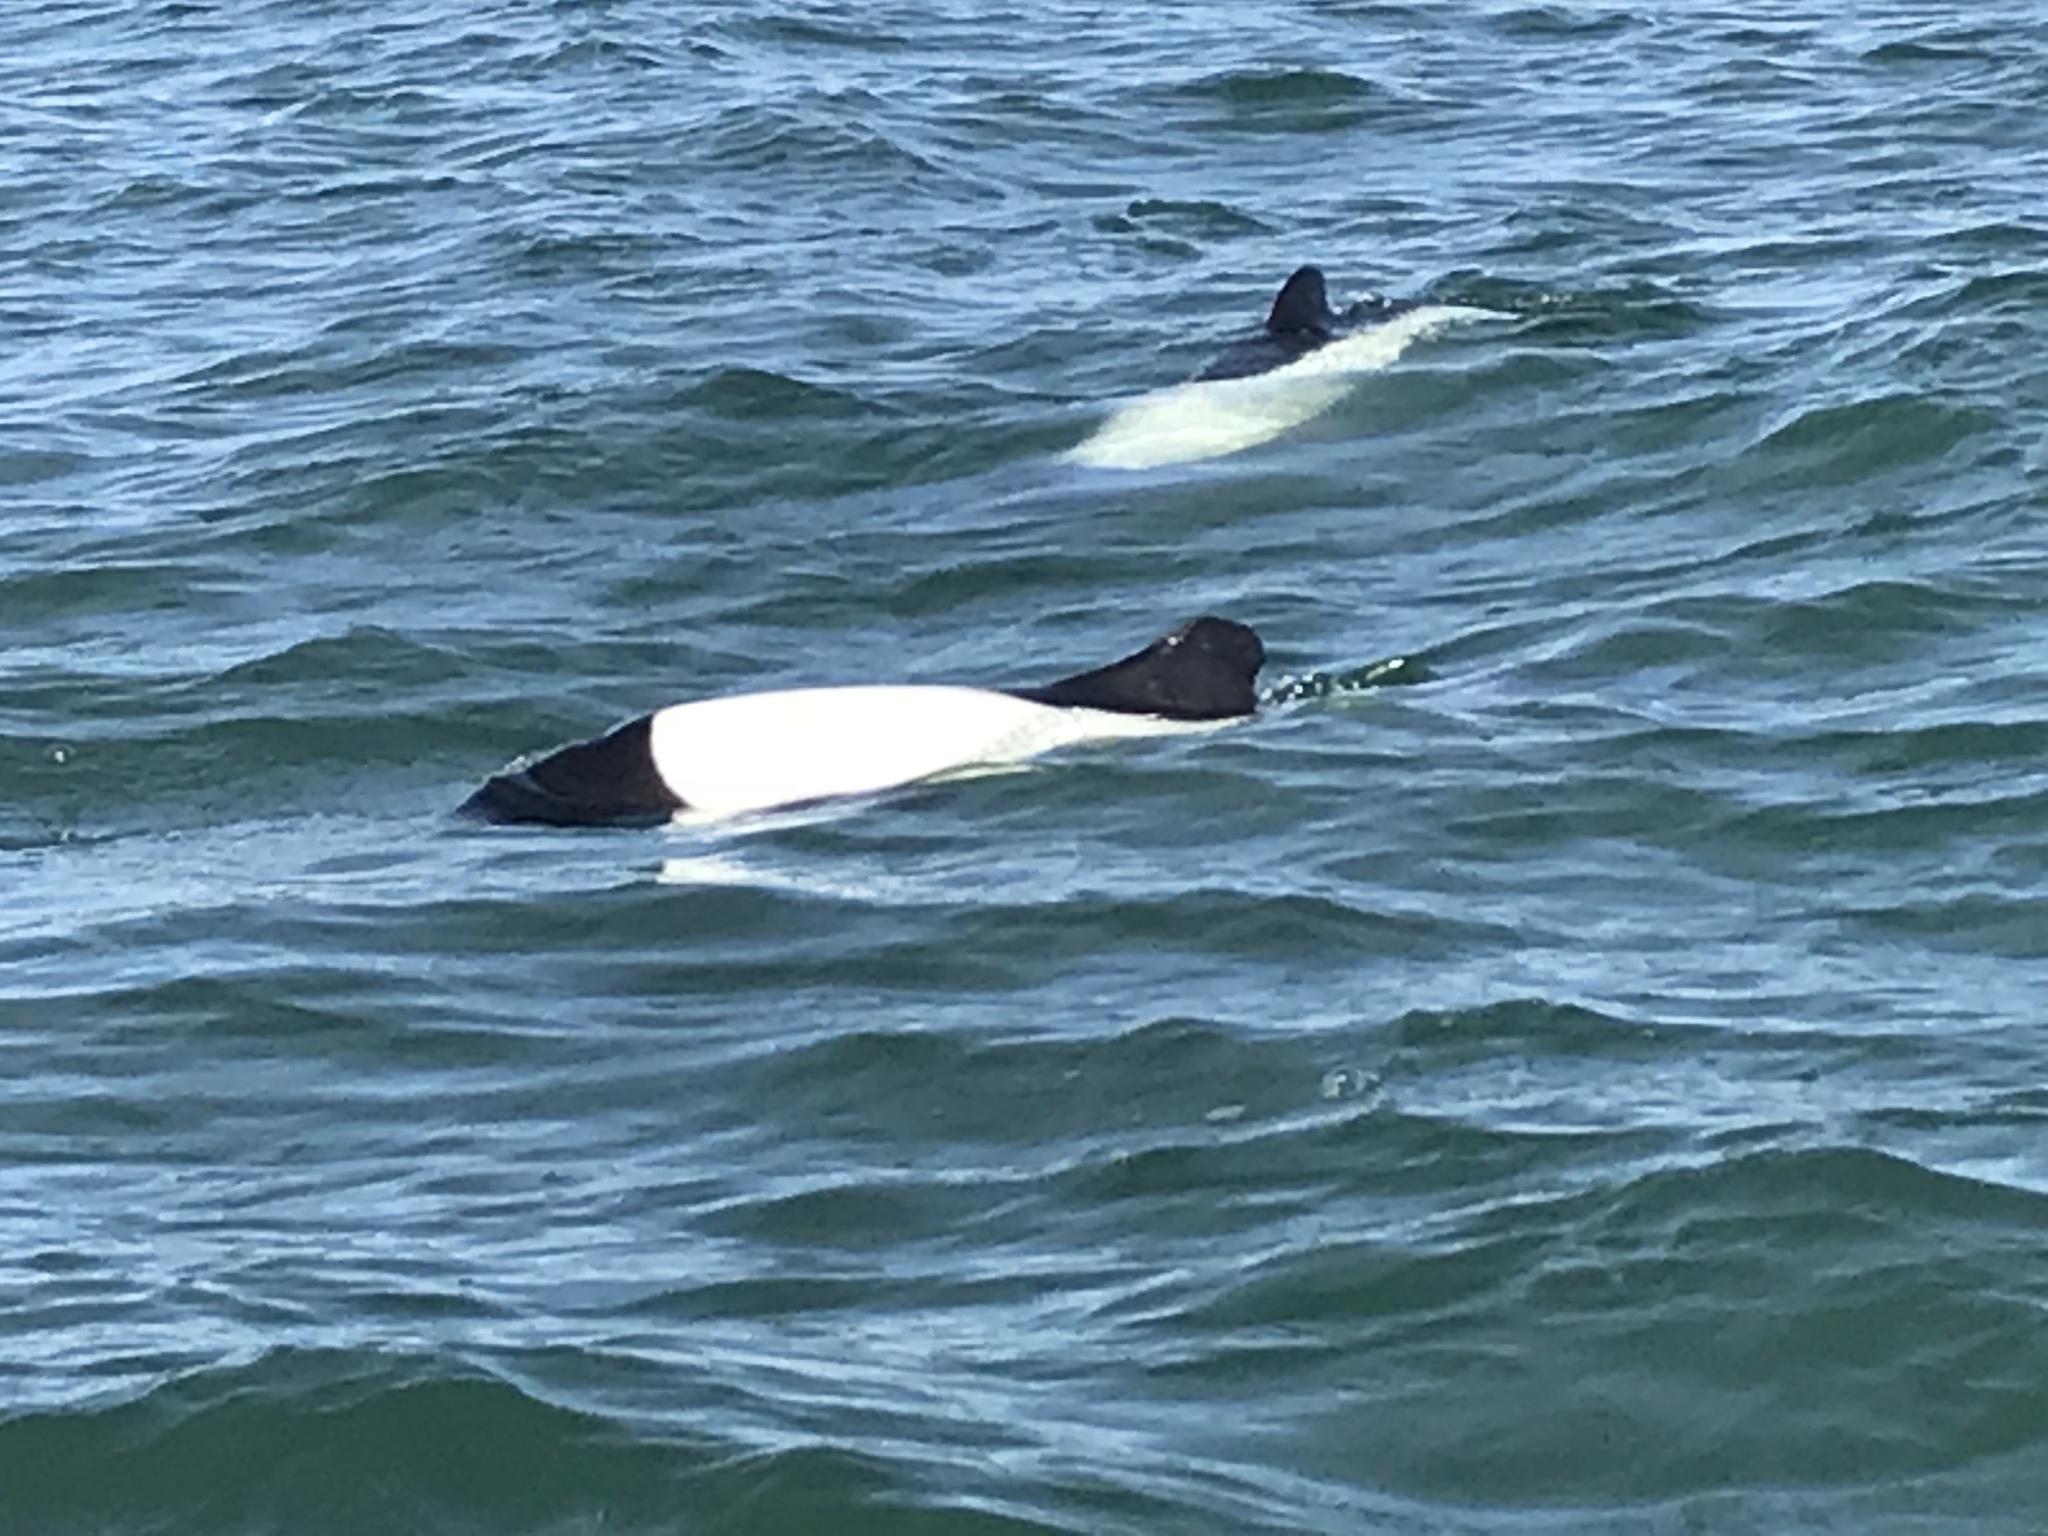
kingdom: Animalia
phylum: Chordata
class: Mammalia
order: Cetacea
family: Delphinidae
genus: Cephalorhynchus
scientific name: Cephalorhynchus commersonii
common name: Commerson's dolphin
